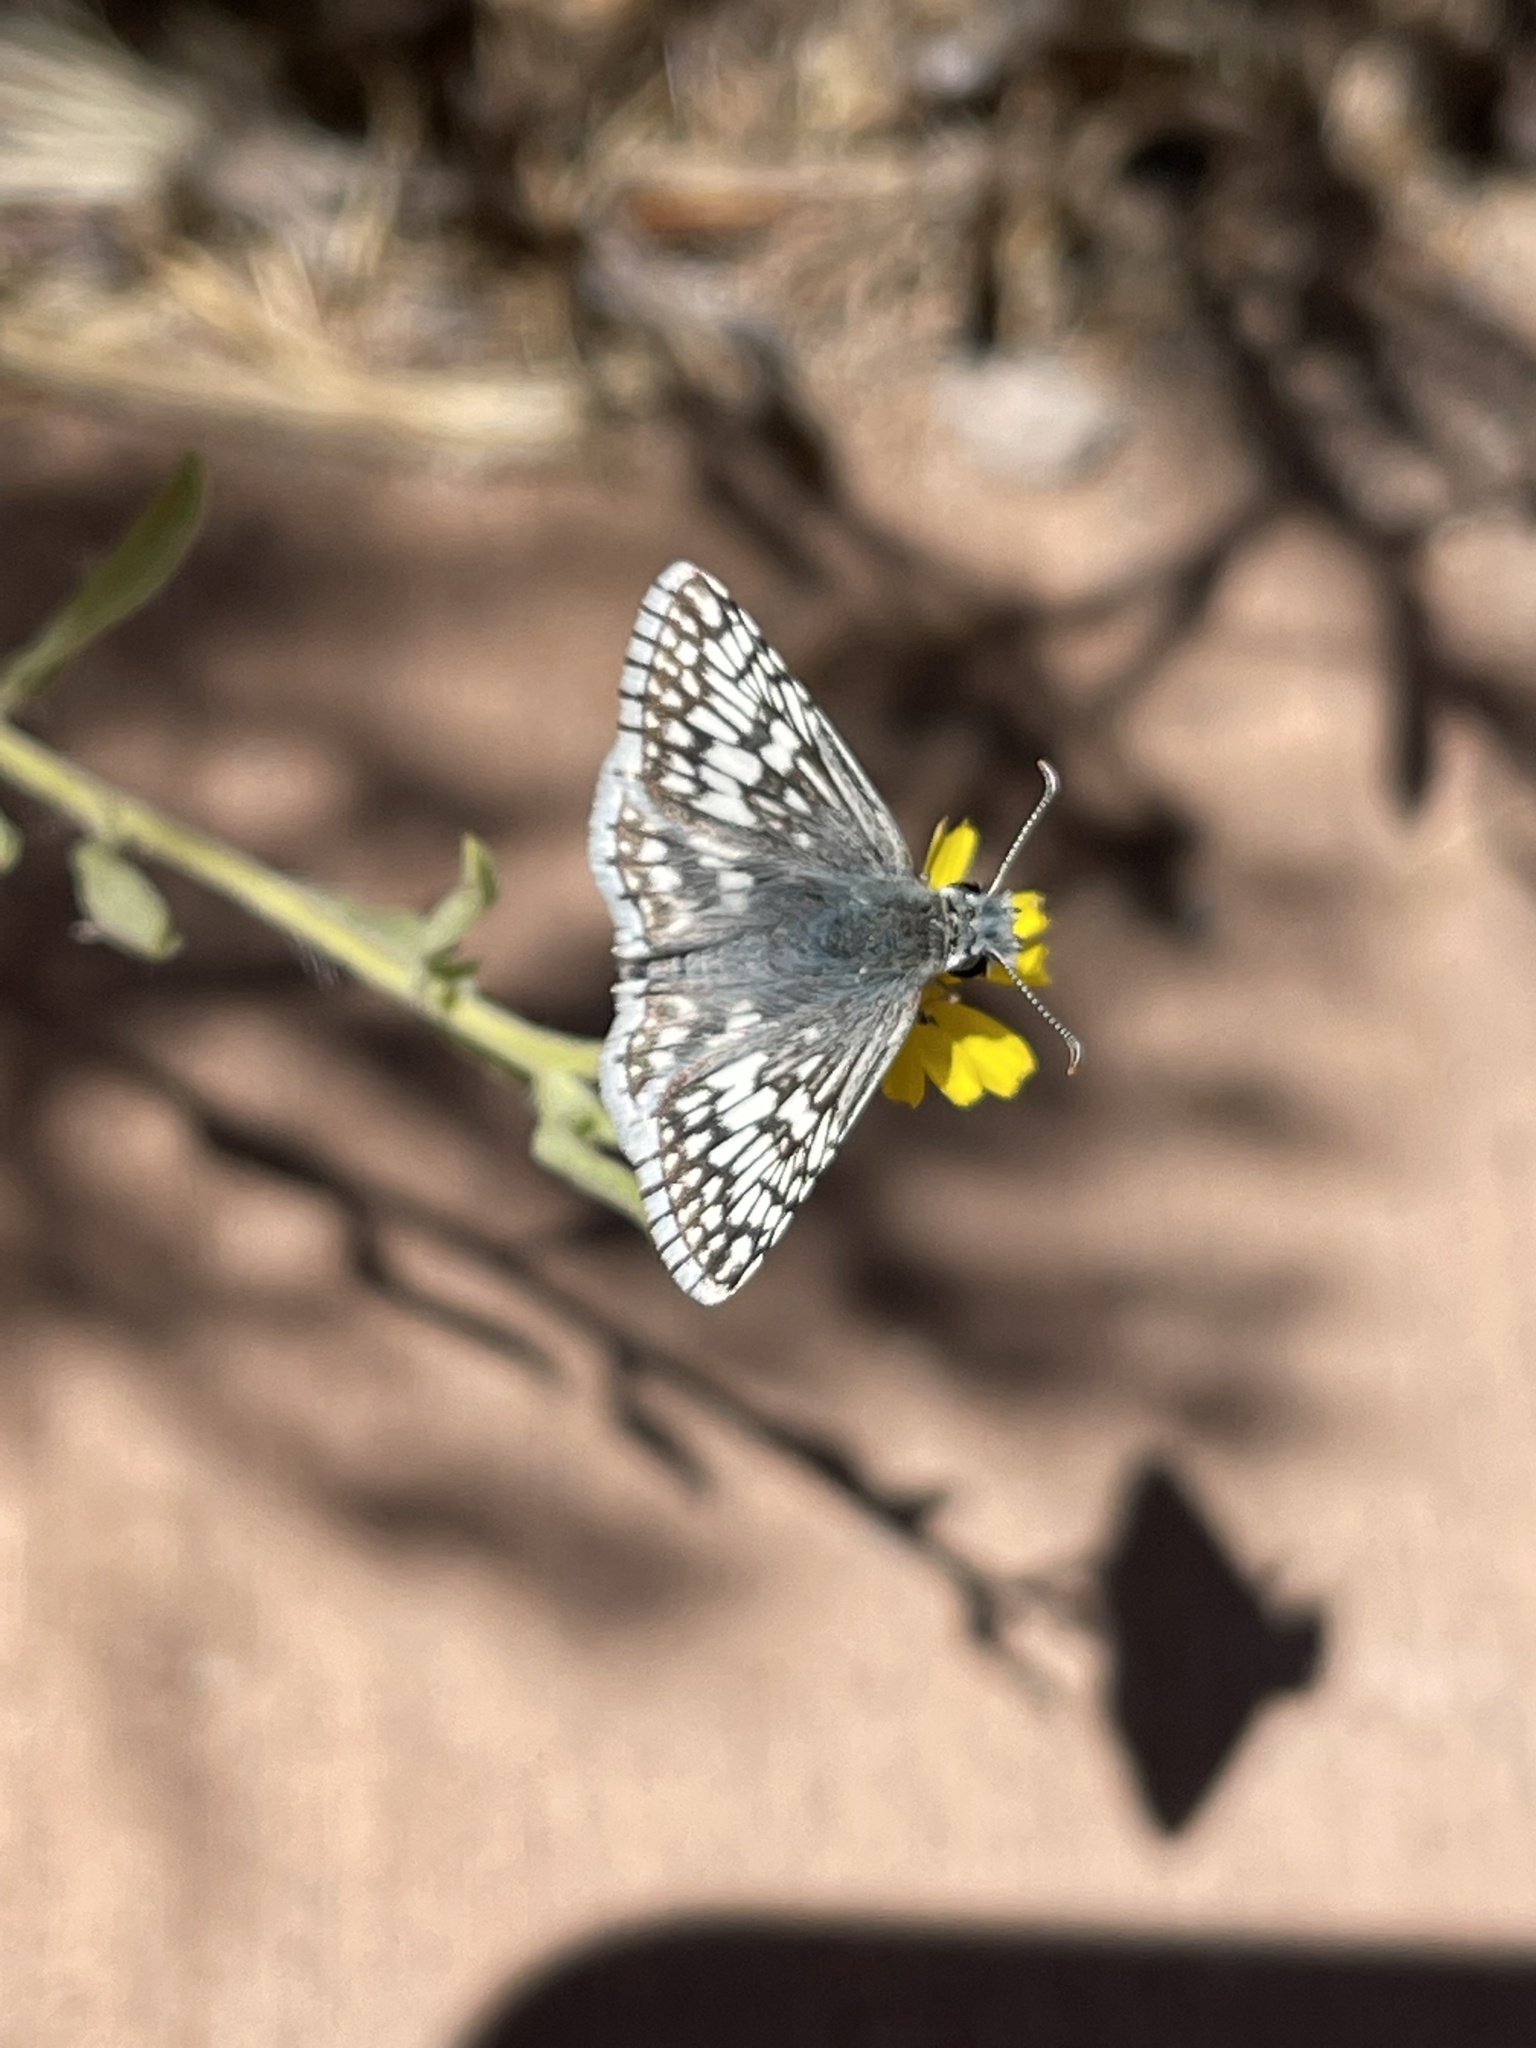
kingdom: Animalia
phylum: Arthropoda
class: Insecta
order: Lepidoptera
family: Hesperiidae
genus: Burnsius
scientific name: Burnsius communis
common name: Common checkered-skipper
